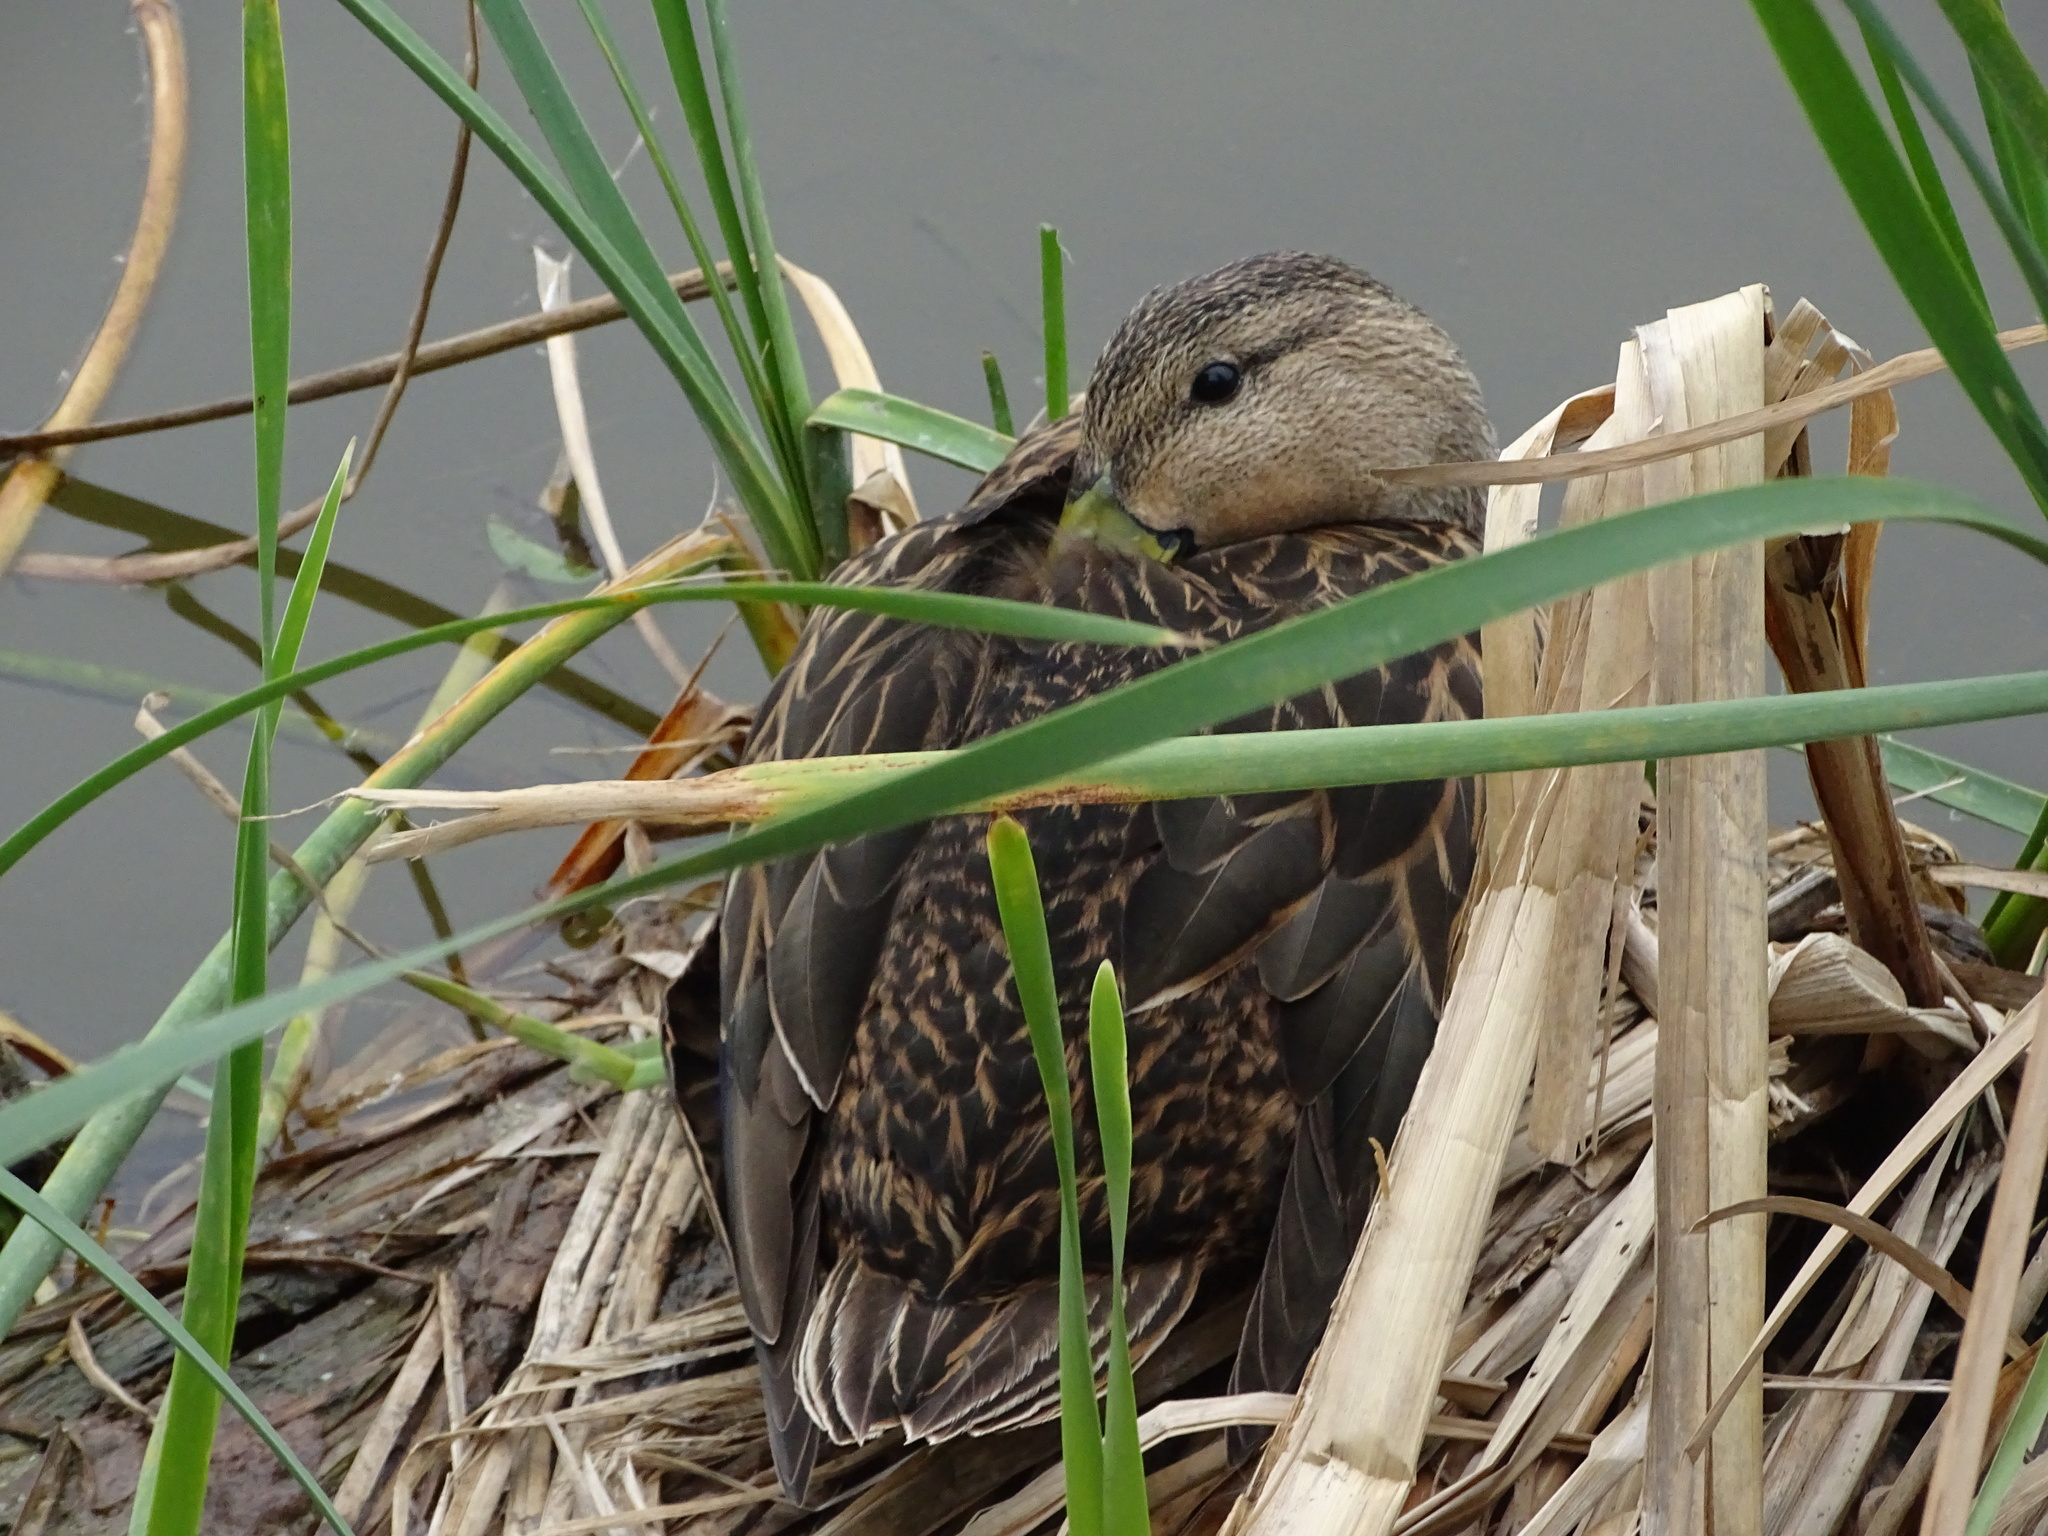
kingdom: Animalia
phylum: Chordata
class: Aves
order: Anseriformes
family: Anatidae
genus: Anas
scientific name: Anas fulvigula
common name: Mottled duck
